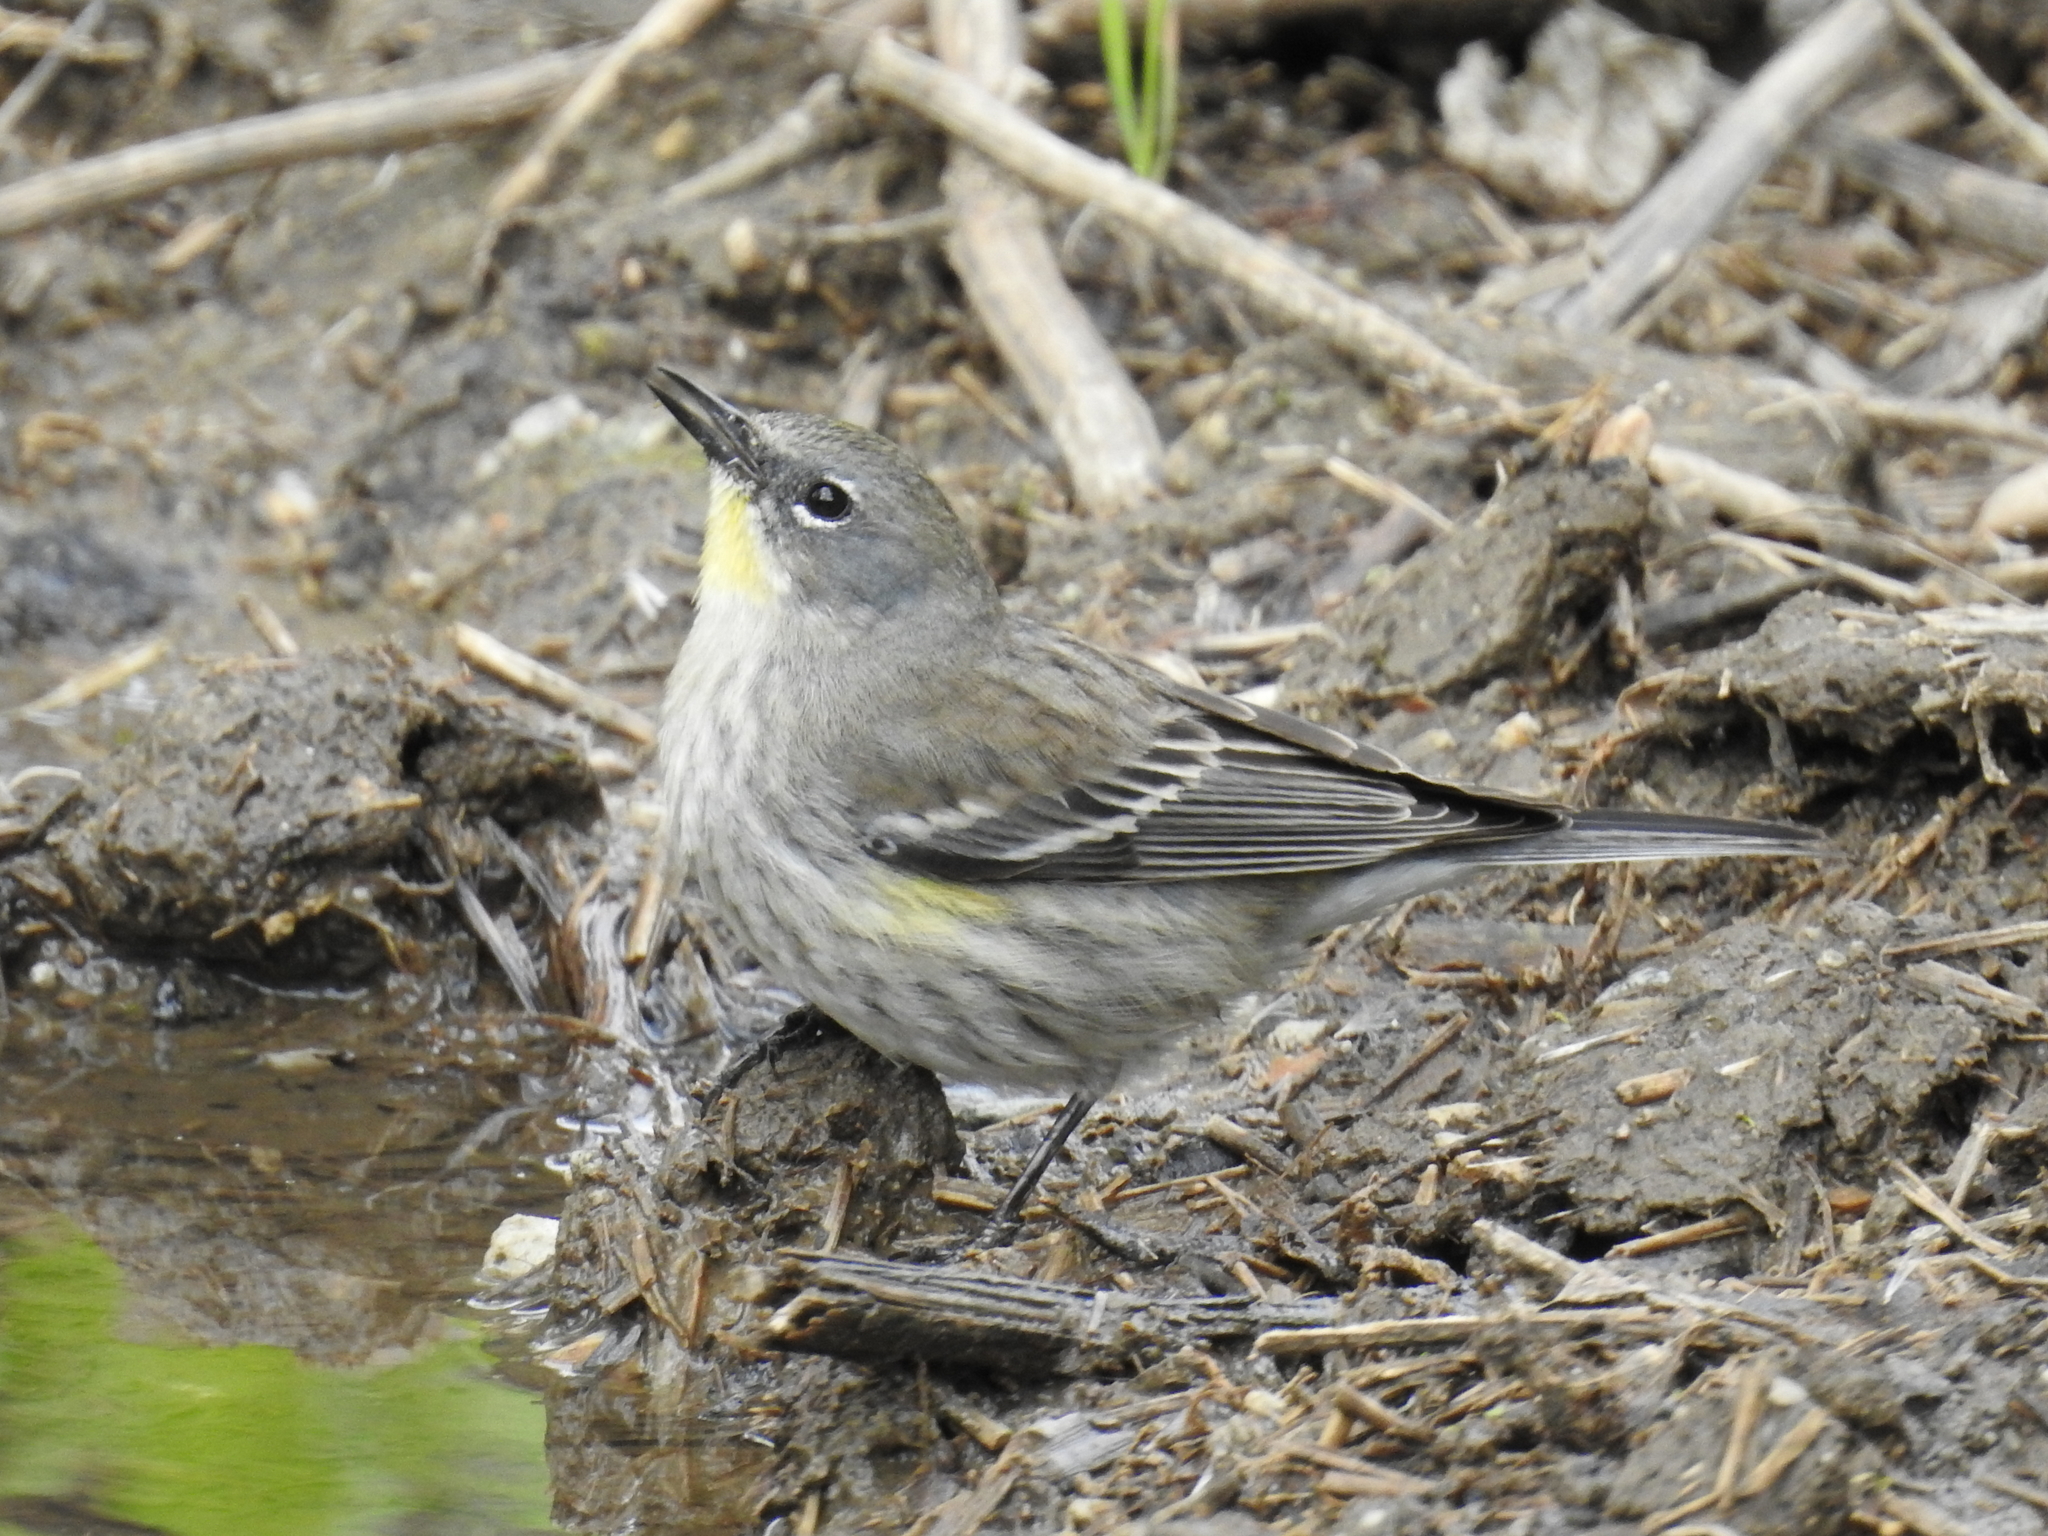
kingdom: Animalia
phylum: Chordata
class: Aves
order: Passeriformes
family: Parulidae
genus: Setophaga
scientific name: Setophaga coronata
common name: Myrtle warbler
